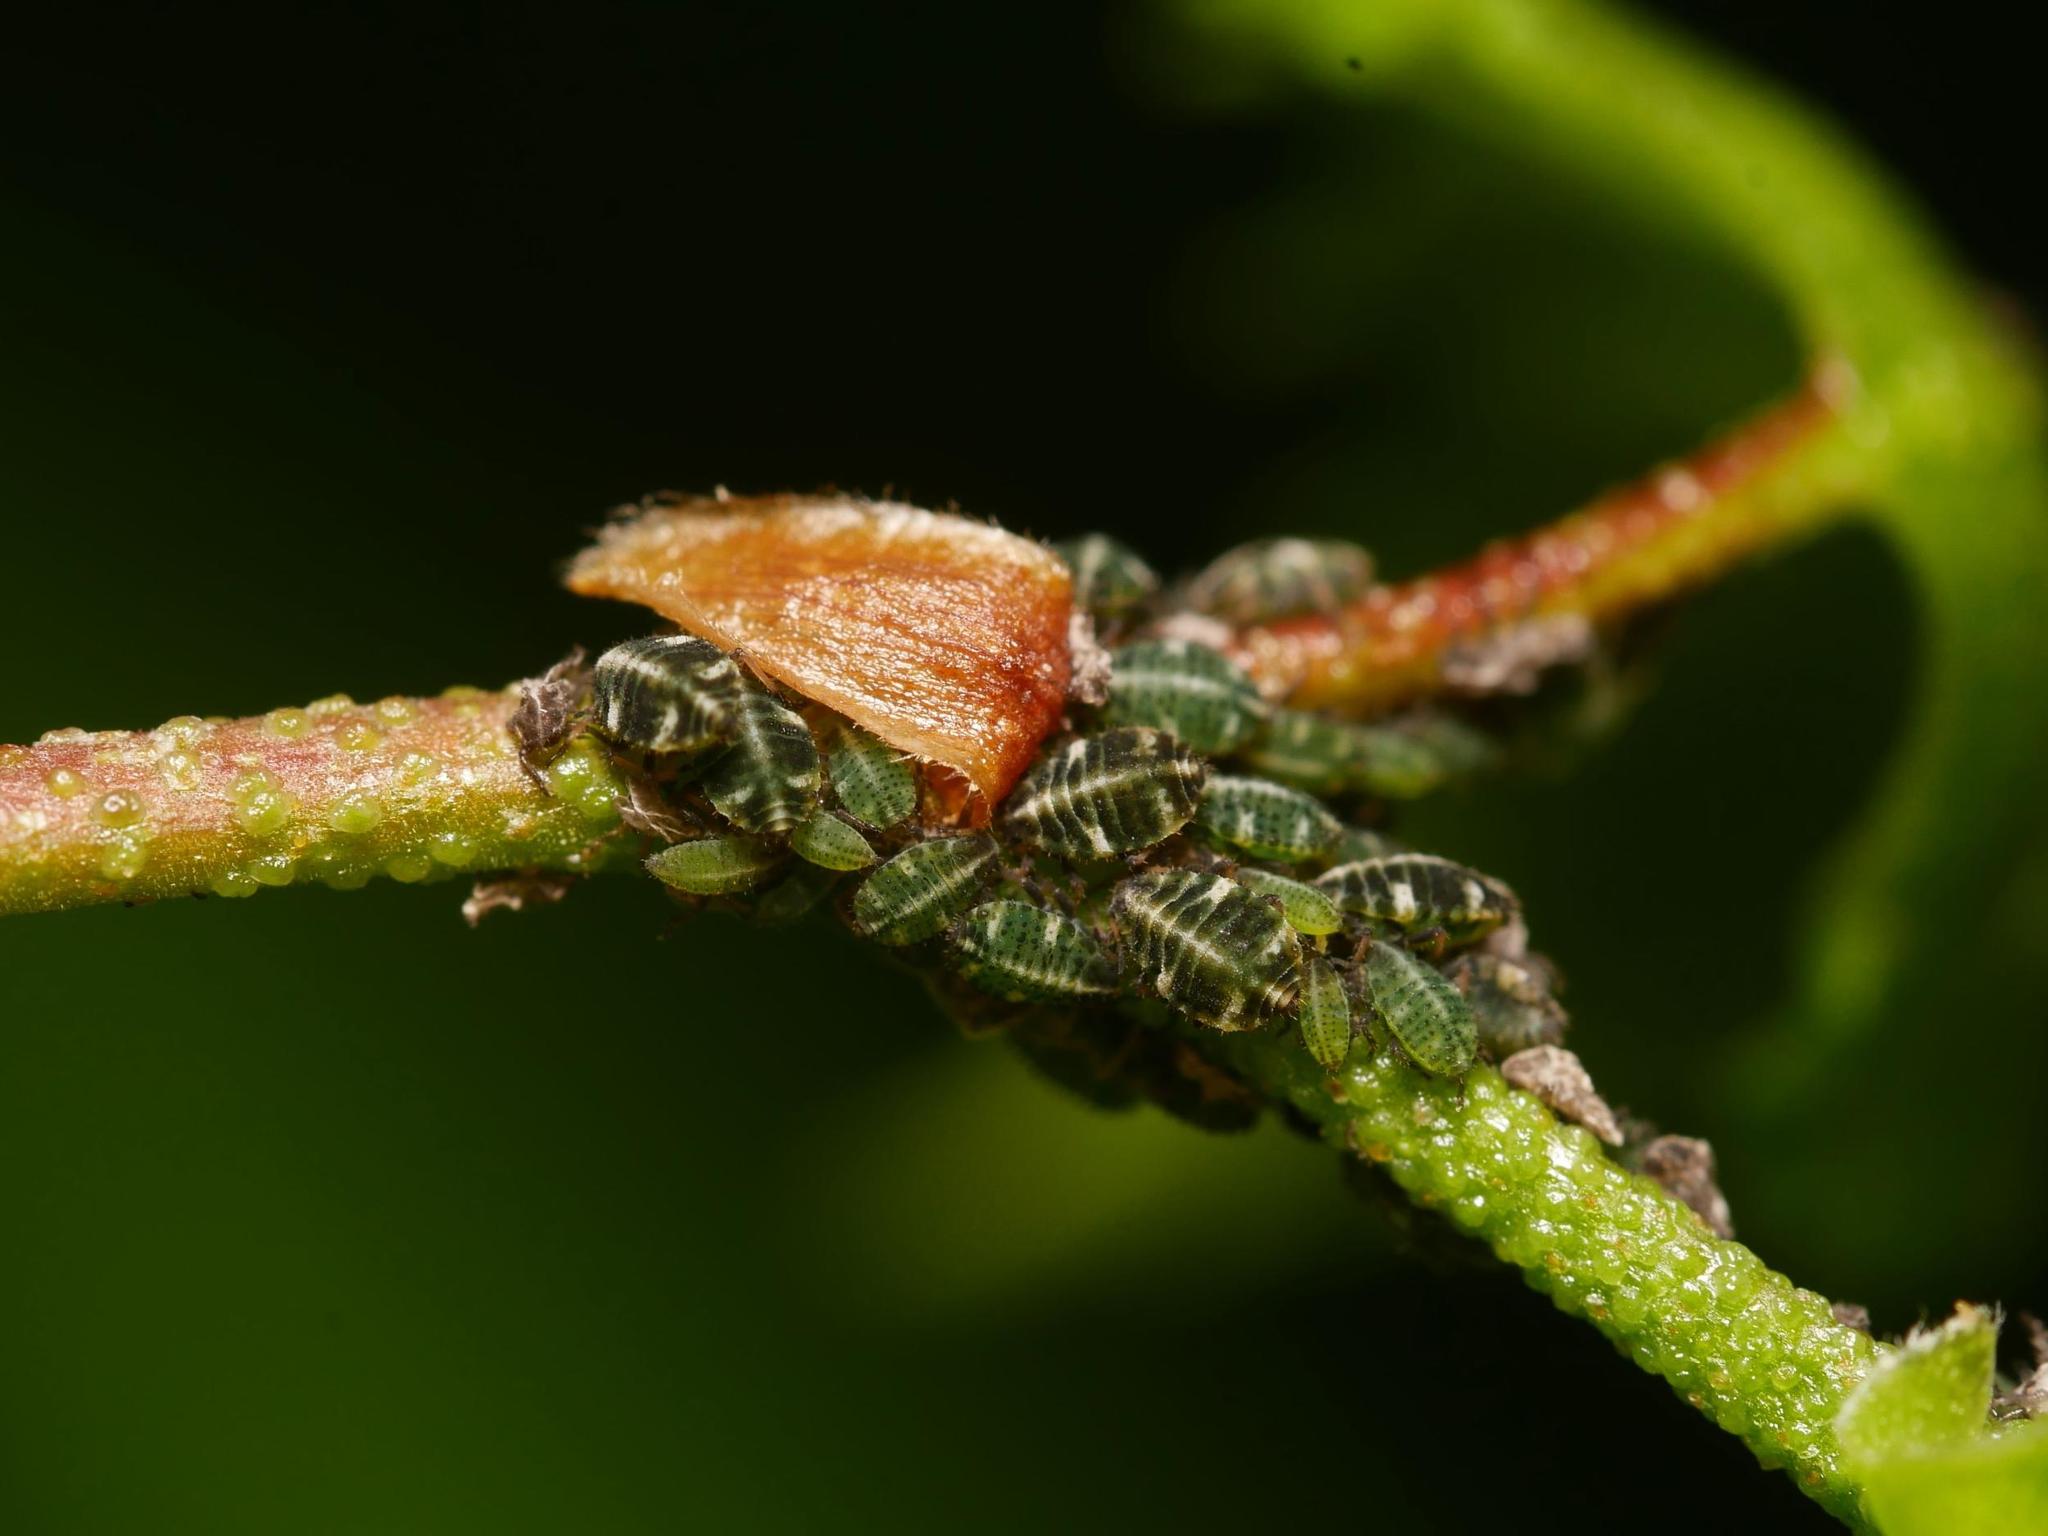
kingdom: Animalia
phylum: Arthropoda
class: Insecta
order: Hemiptera
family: Aphididae
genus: Glyphina
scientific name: Glyphina betulae
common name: Aphid
